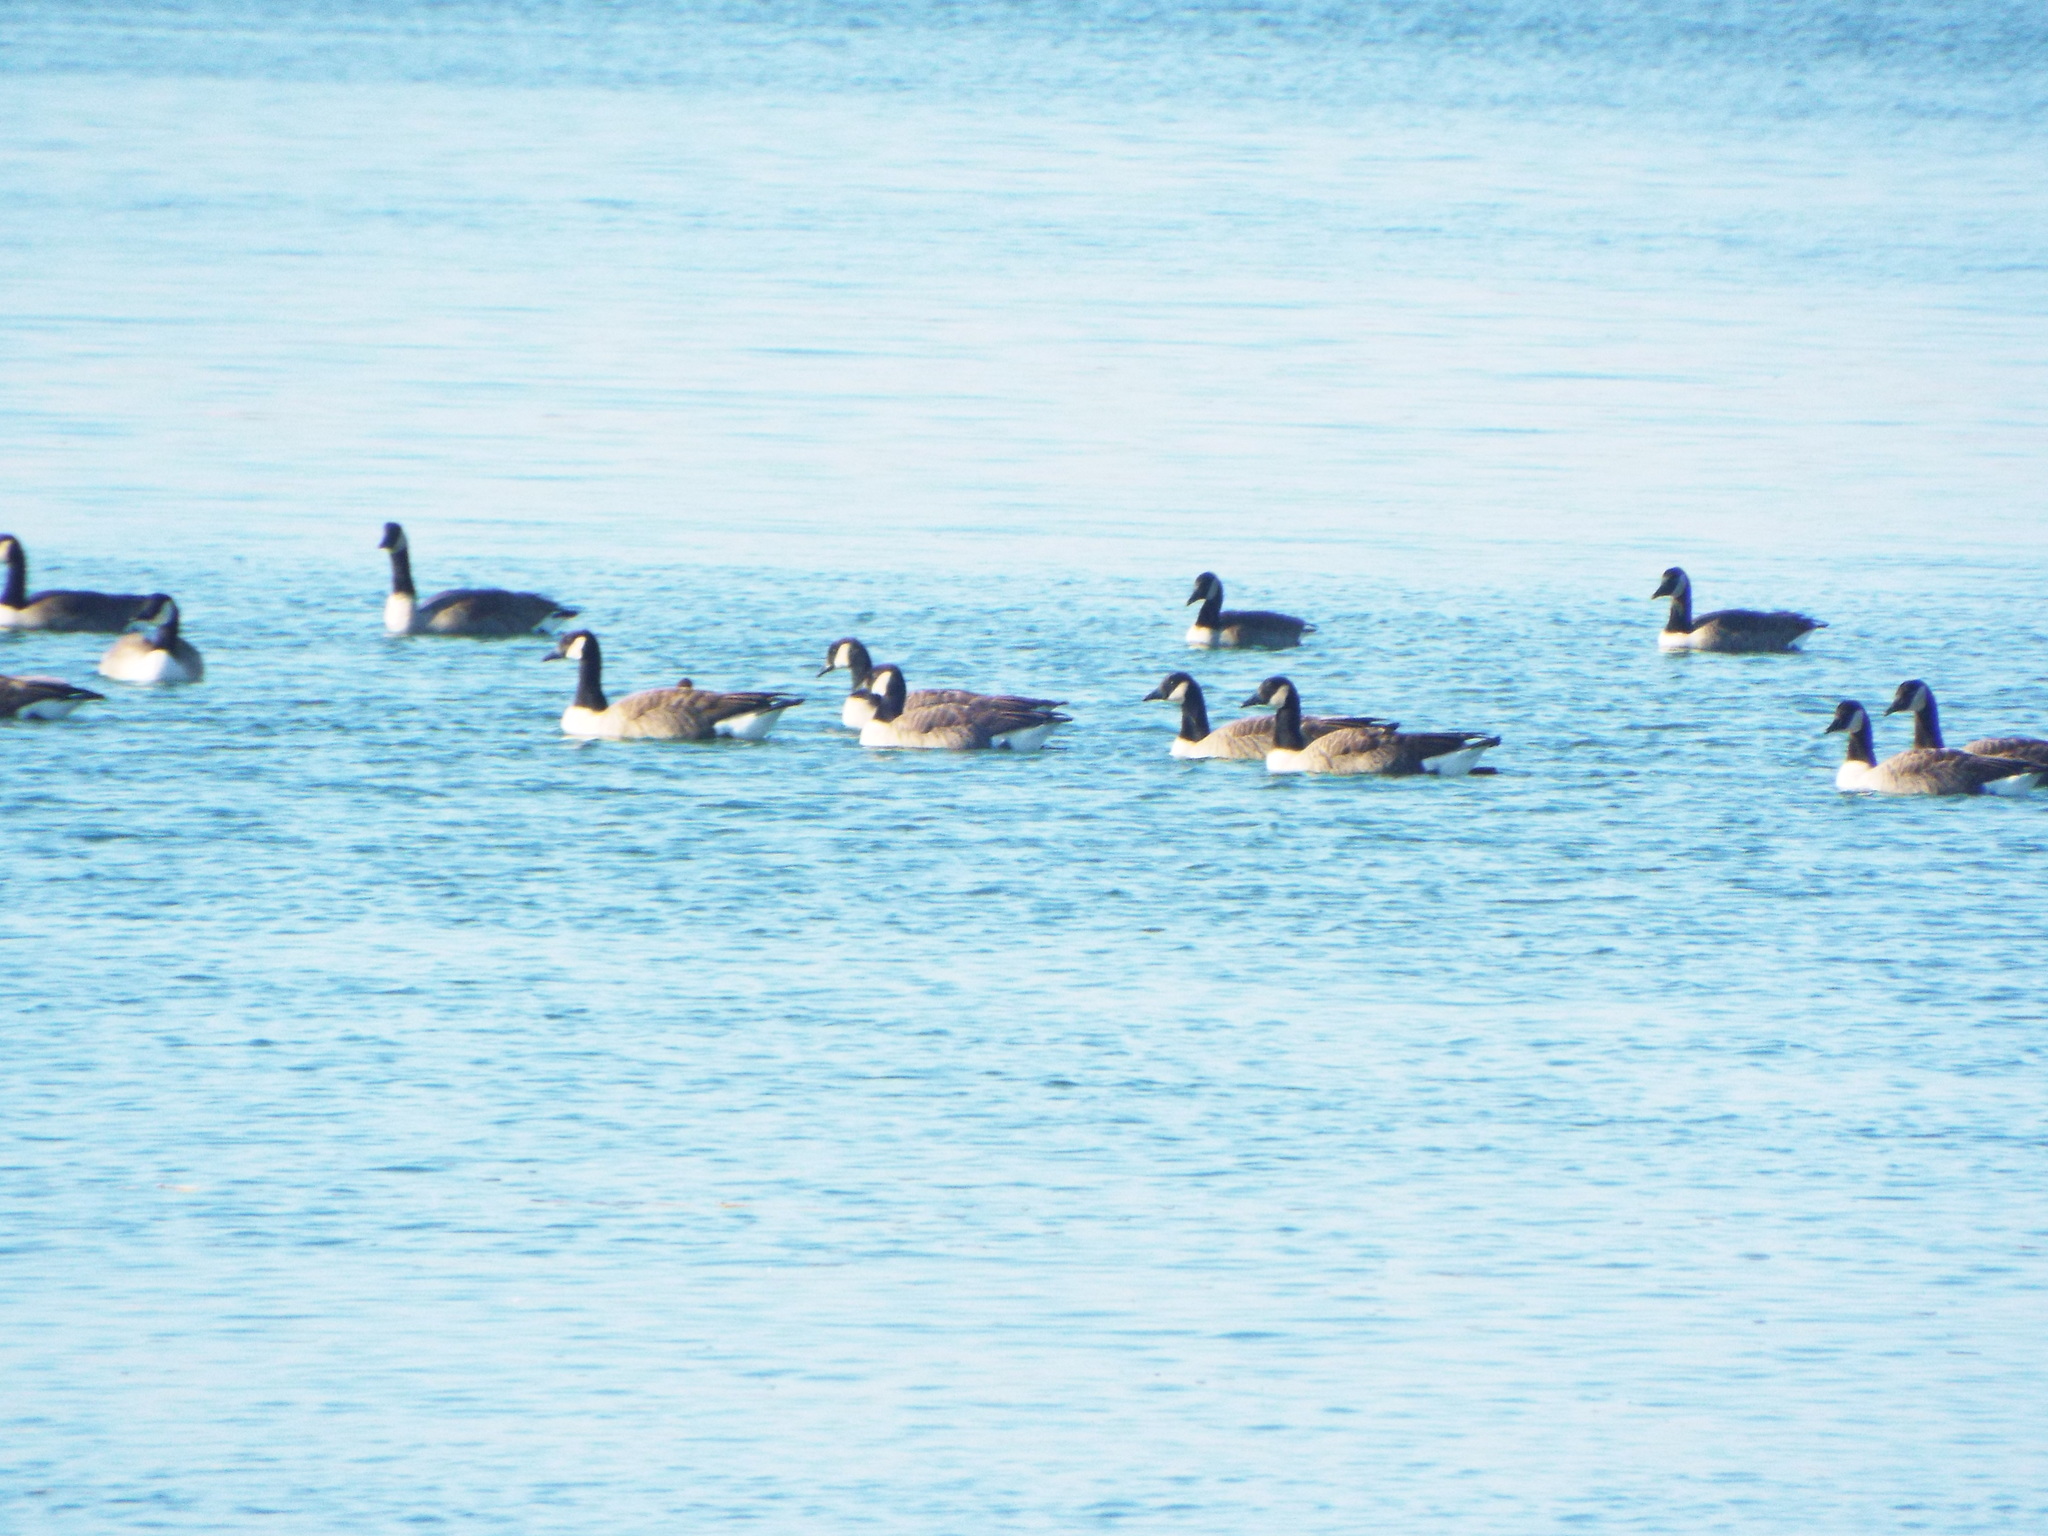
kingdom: Animalia
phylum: Chordata
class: Aves
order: Anseriformes
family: Anatidae
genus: Branta
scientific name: Branta canadensis
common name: Canada goose
